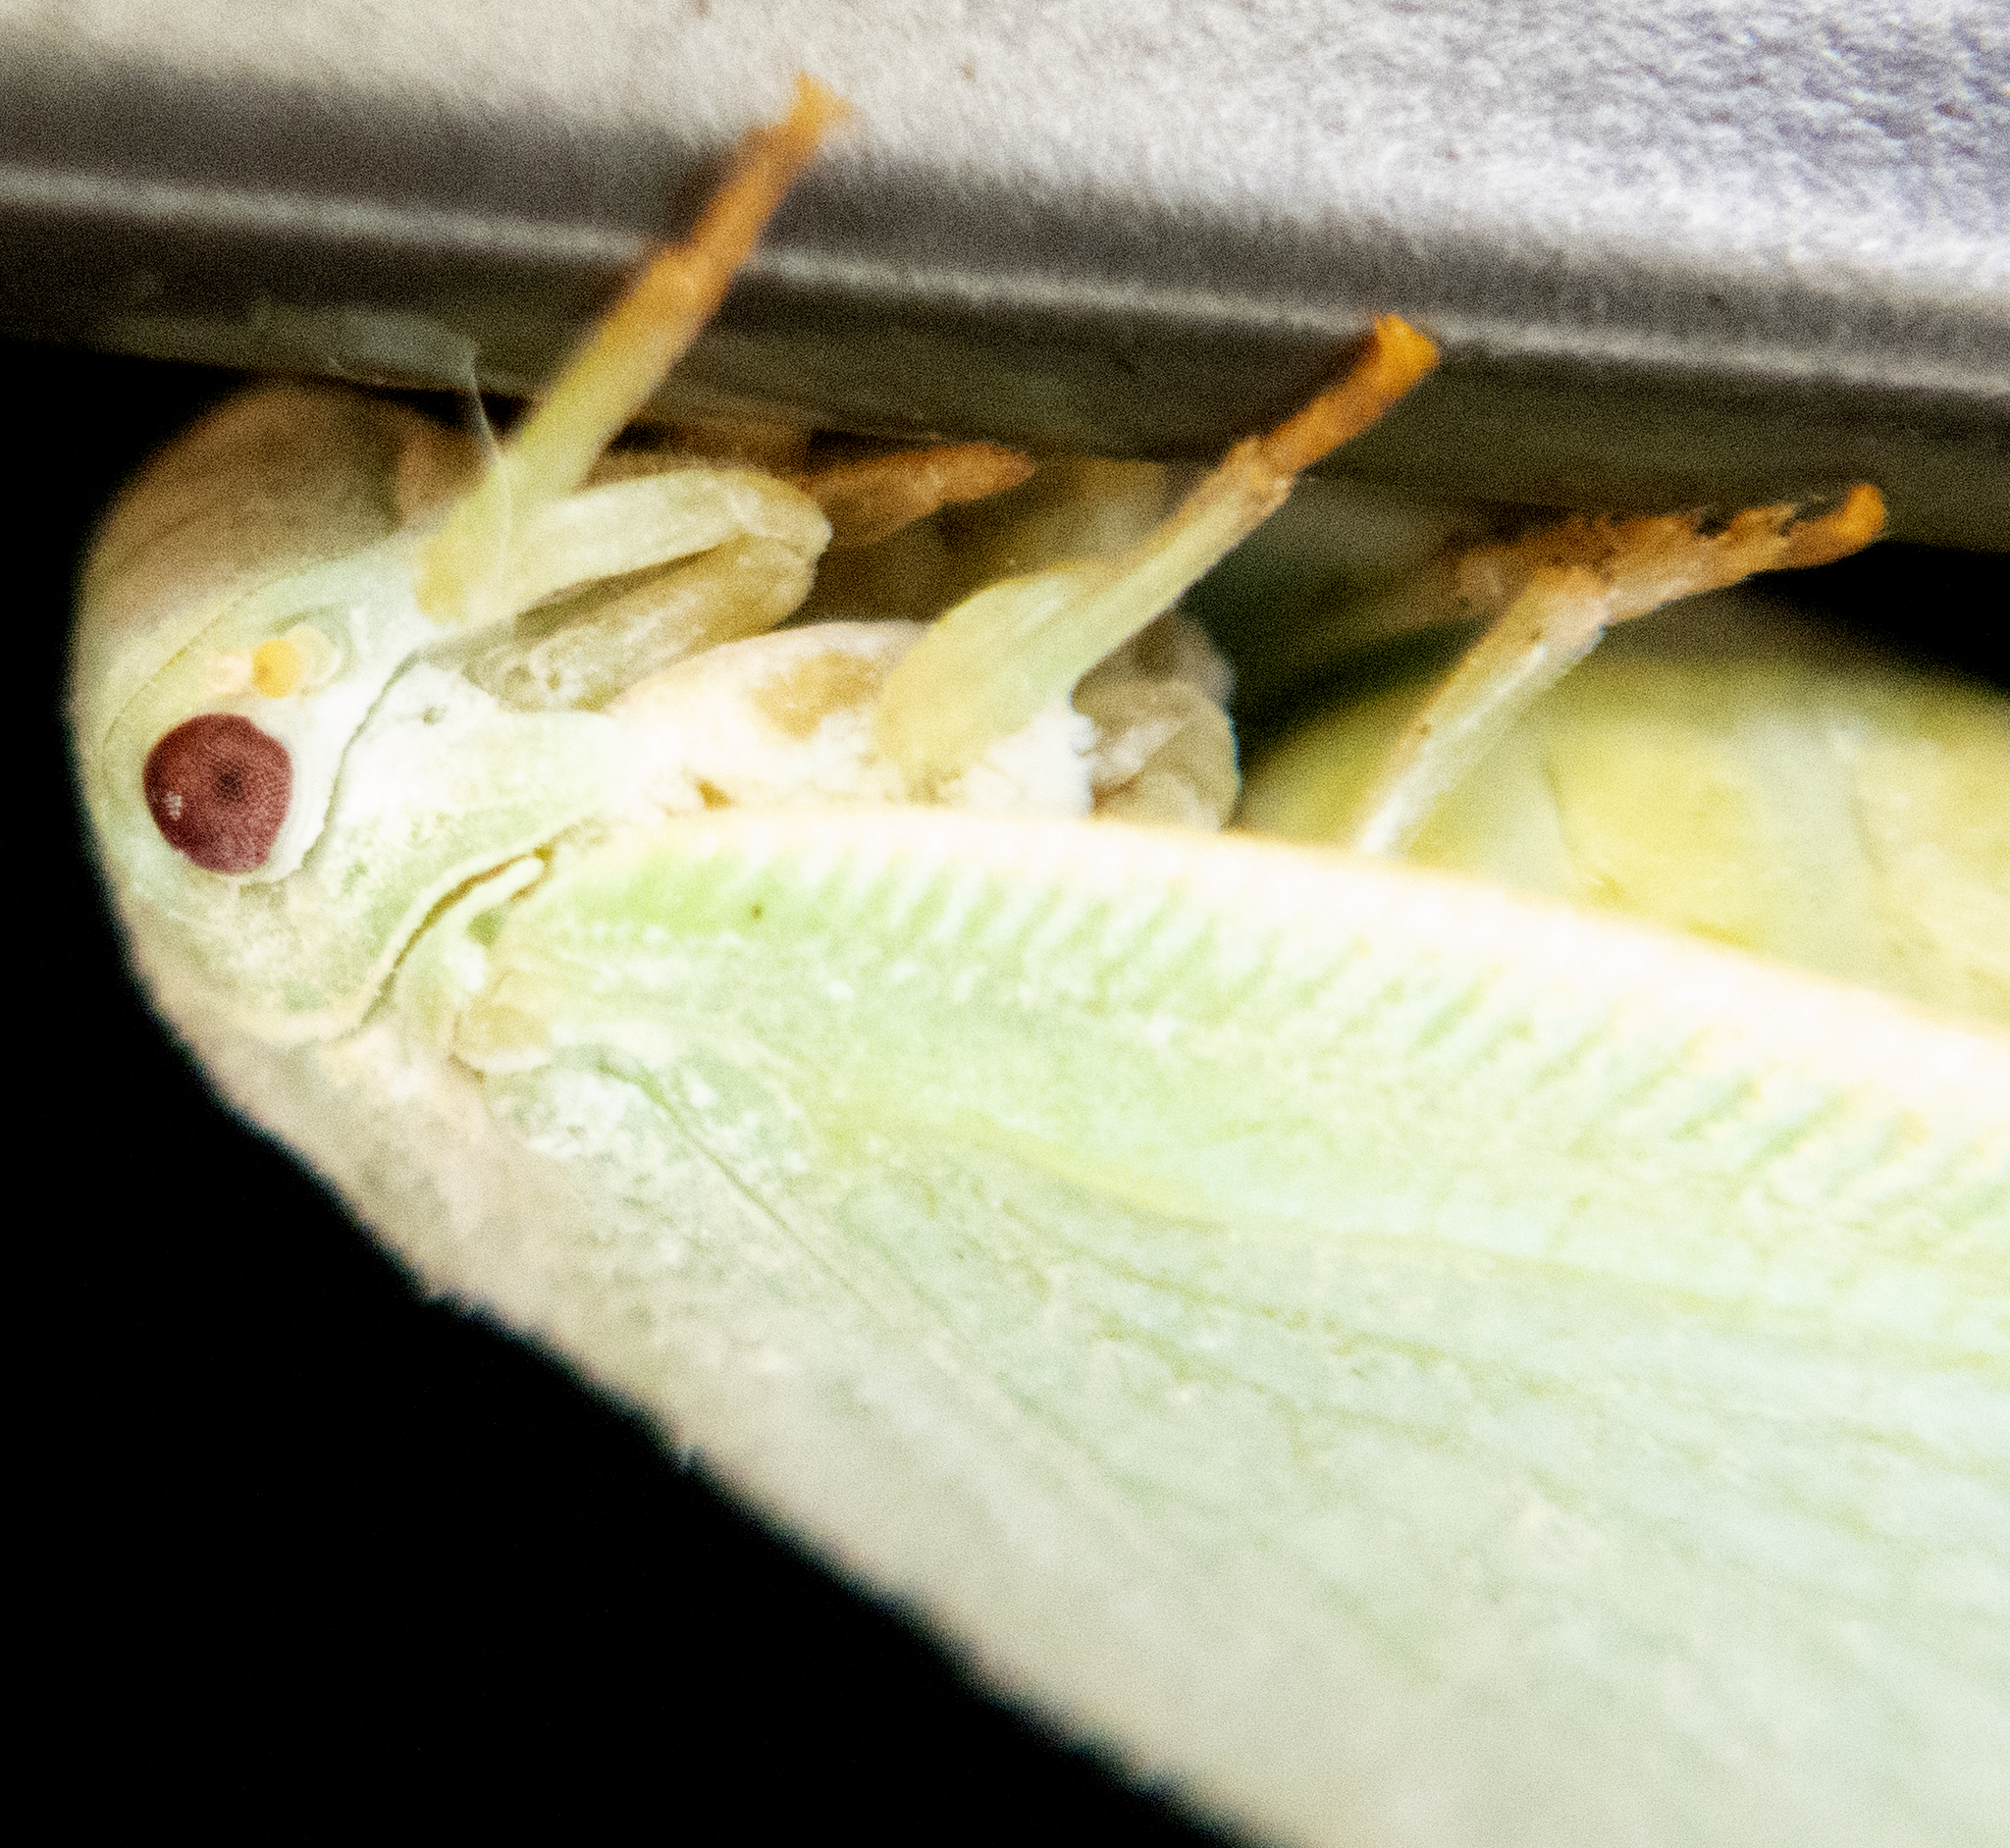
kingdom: Animalia
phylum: Arthropoda
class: Insecta
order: Hemiptera
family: Flatidae
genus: Flatormenis
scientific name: Flatormenis proxima
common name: Northern flatid planthopper
